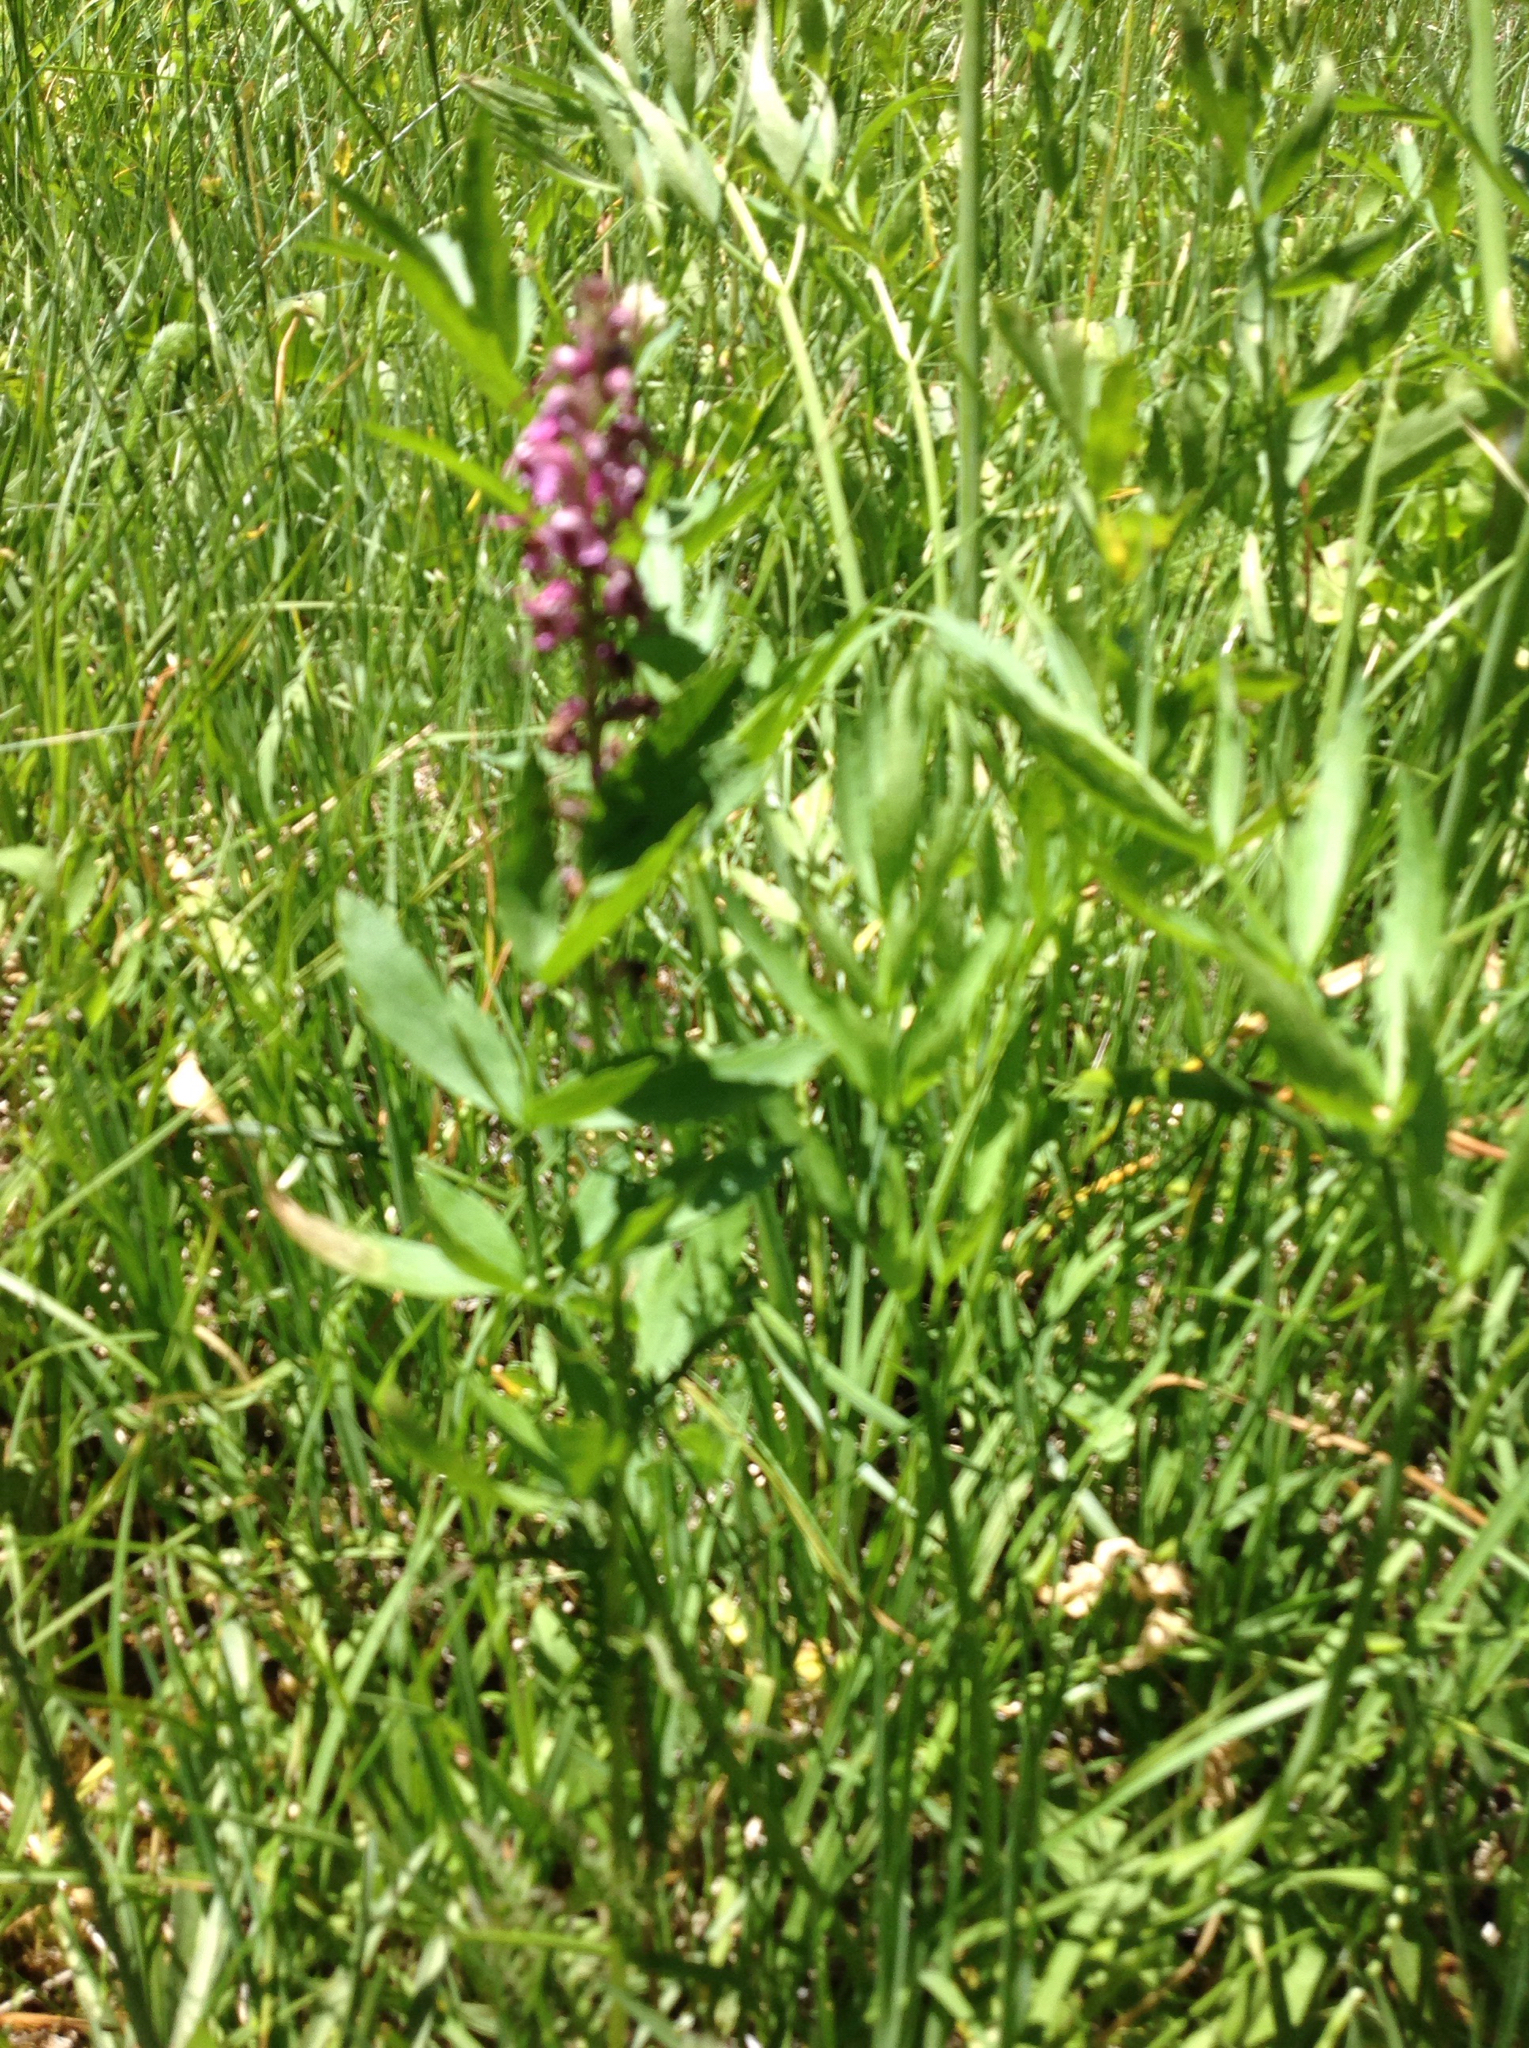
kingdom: Plantae
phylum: Tracheophyta
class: Magnoliopsida
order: Lamiales
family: Orobanchaceae
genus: Pedicularis
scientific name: Pedicularis groenlandica
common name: Elephant's-head
